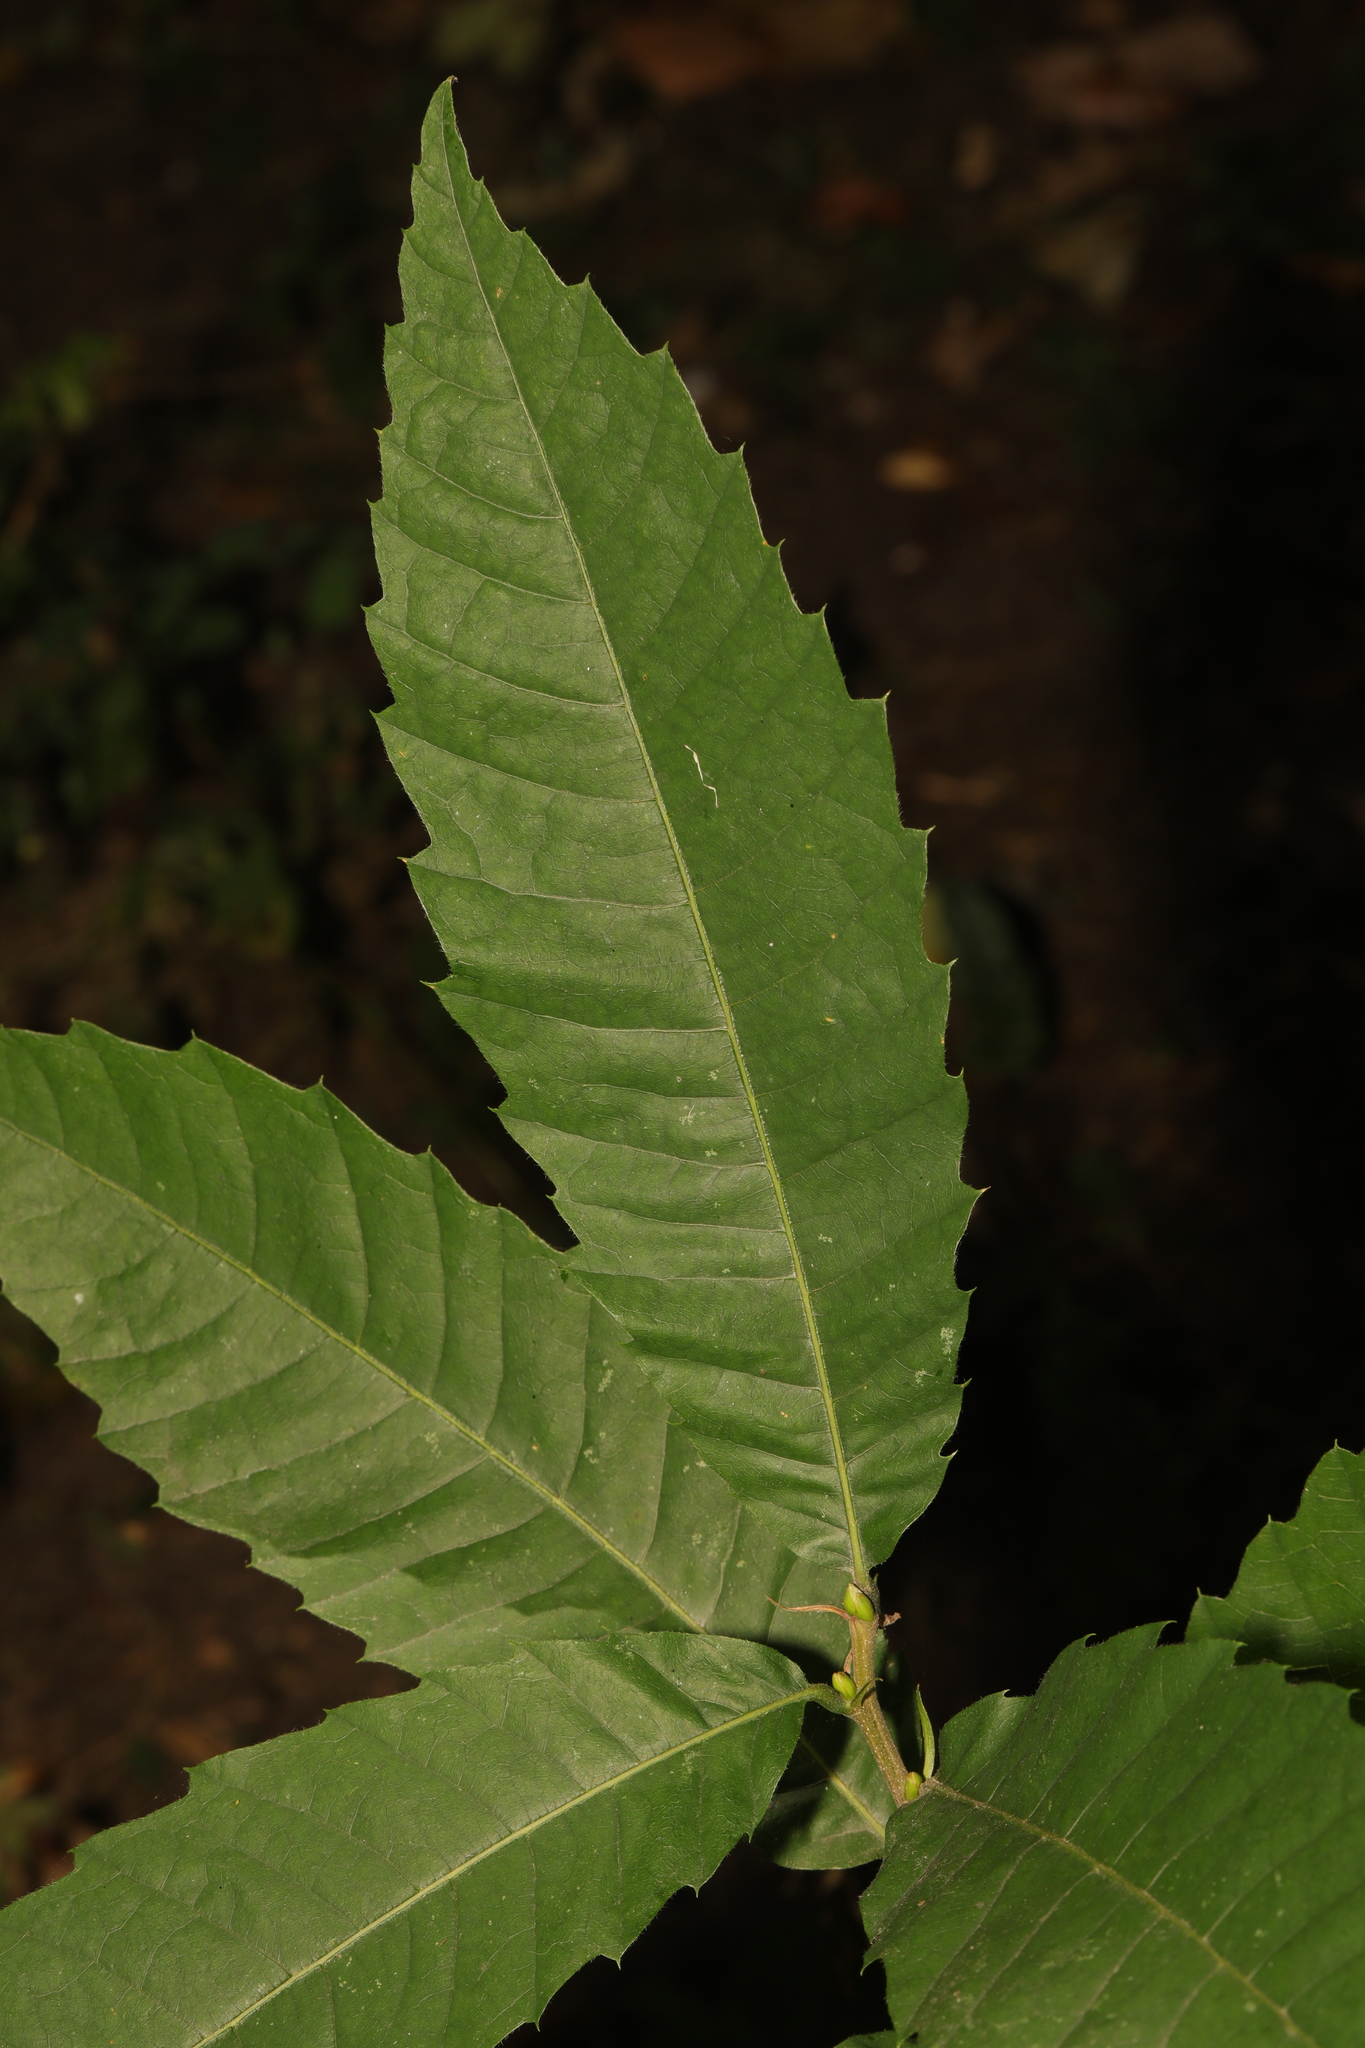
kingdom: Plantae
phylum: Tracheophyta
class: Magnoliopsida
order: Fagales
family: Fagaceae
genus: Castanea
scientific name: Castanea sativa
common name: Sweet chestnut
